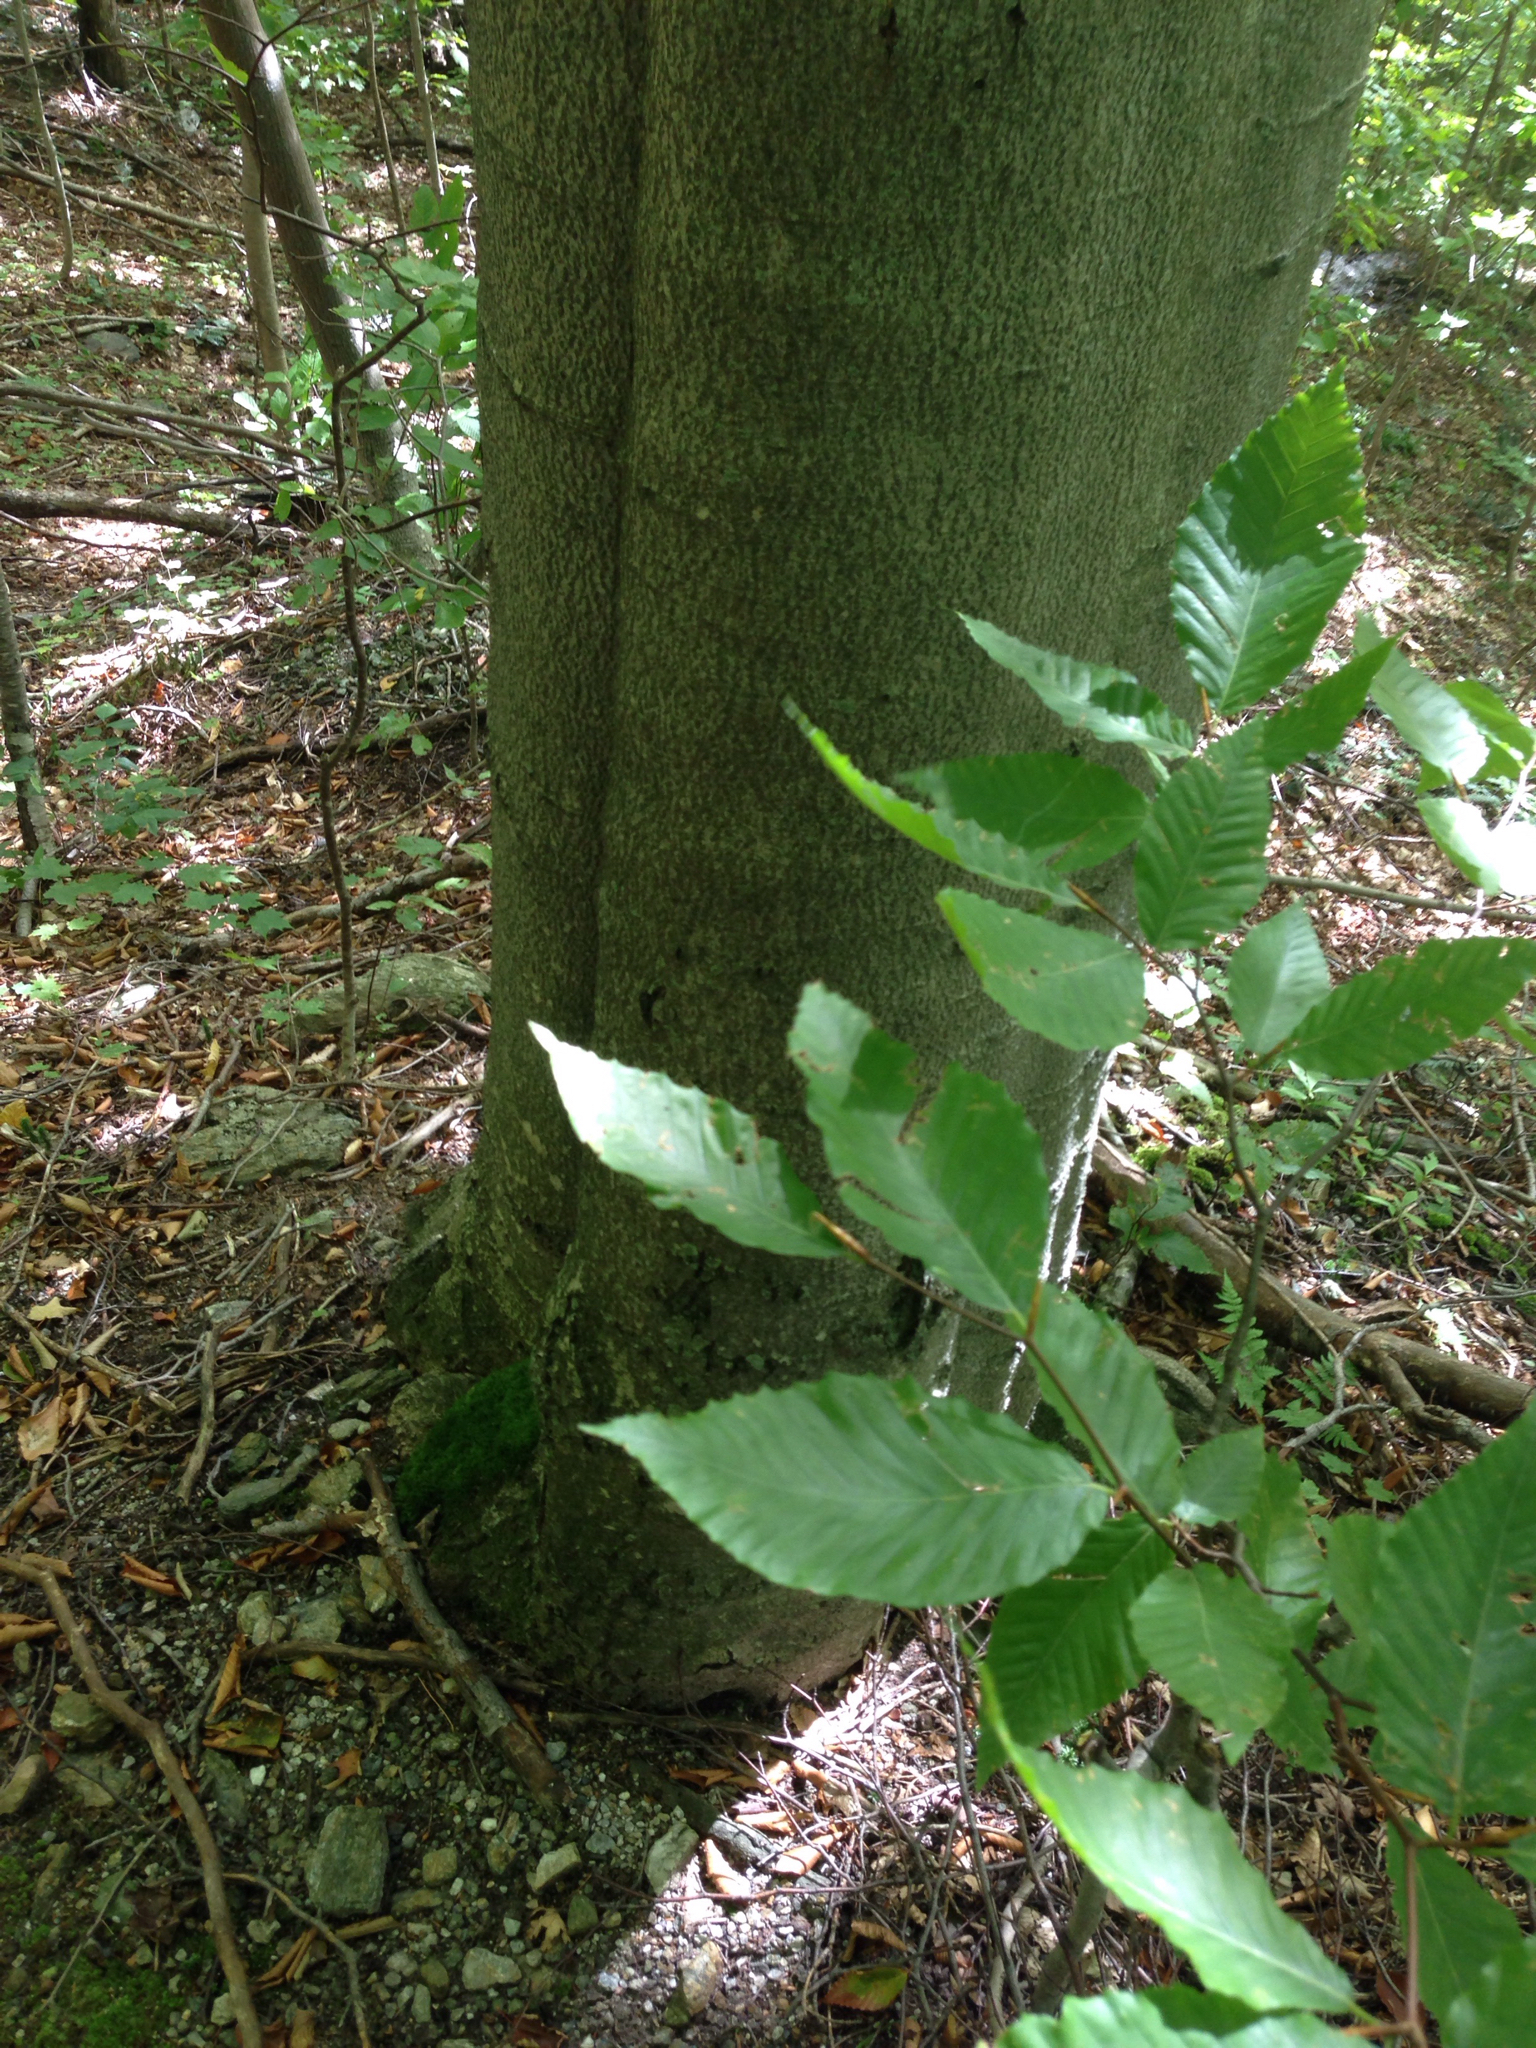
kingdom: Plantae
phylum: Tracheophyta
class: Magnoliopsida
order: Fagales
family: Fagaceae
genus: Fagus
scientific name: Fagus grandifolia
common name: American beech
